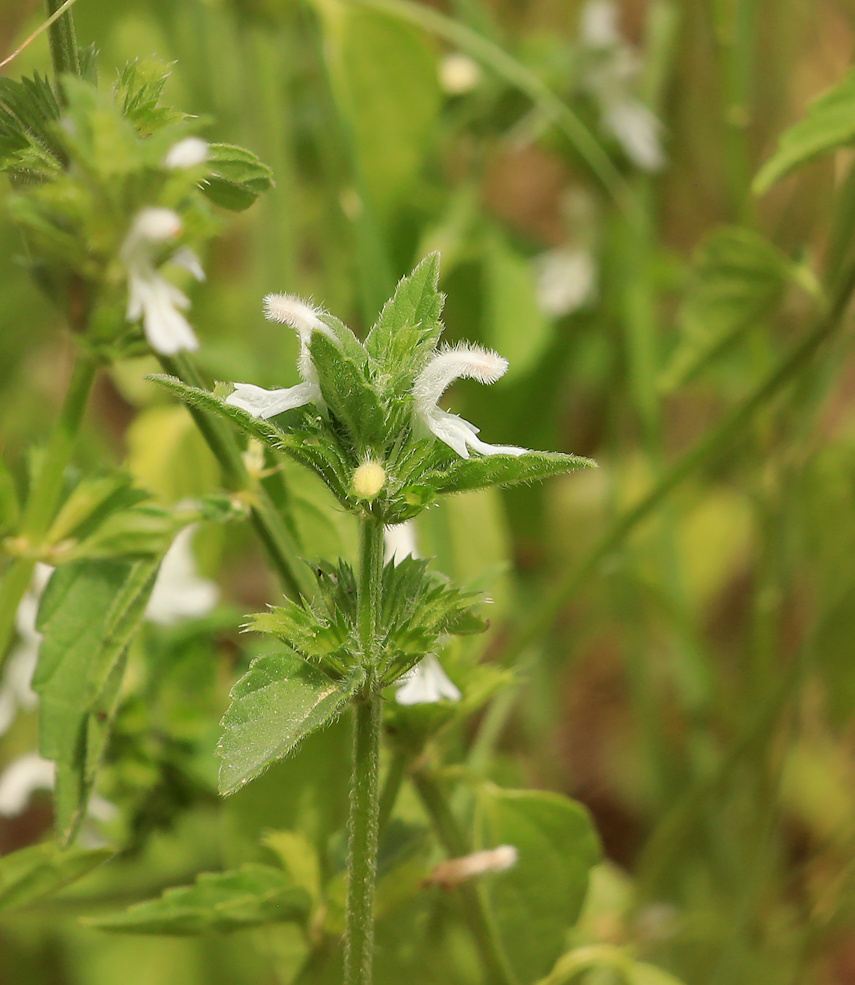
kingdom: Plantae
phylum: Tracheophyta
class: Magnoliopsida
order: Lamiales
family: Lamiaceae
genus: Leucas
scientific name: Leucas glabrata
